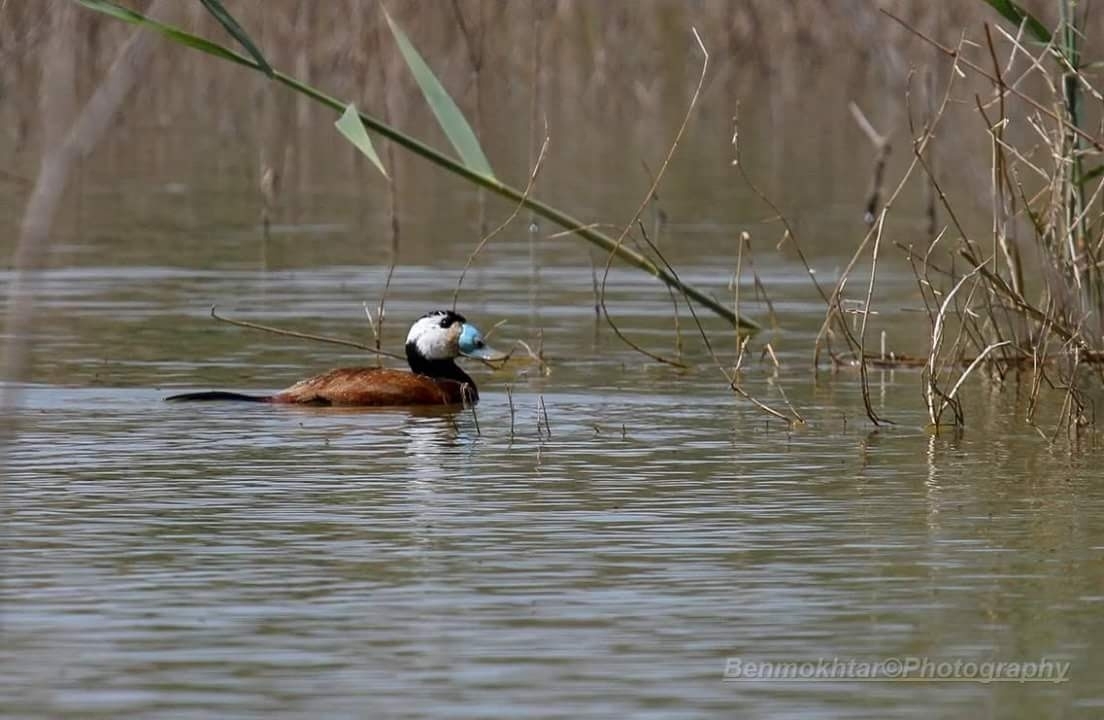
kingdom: Animalia
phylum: Chordata
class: Aves
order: Anseriformes
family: Anatidae
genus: Oxyura
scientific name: Oxyura leucocephala
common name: White-headed duck
